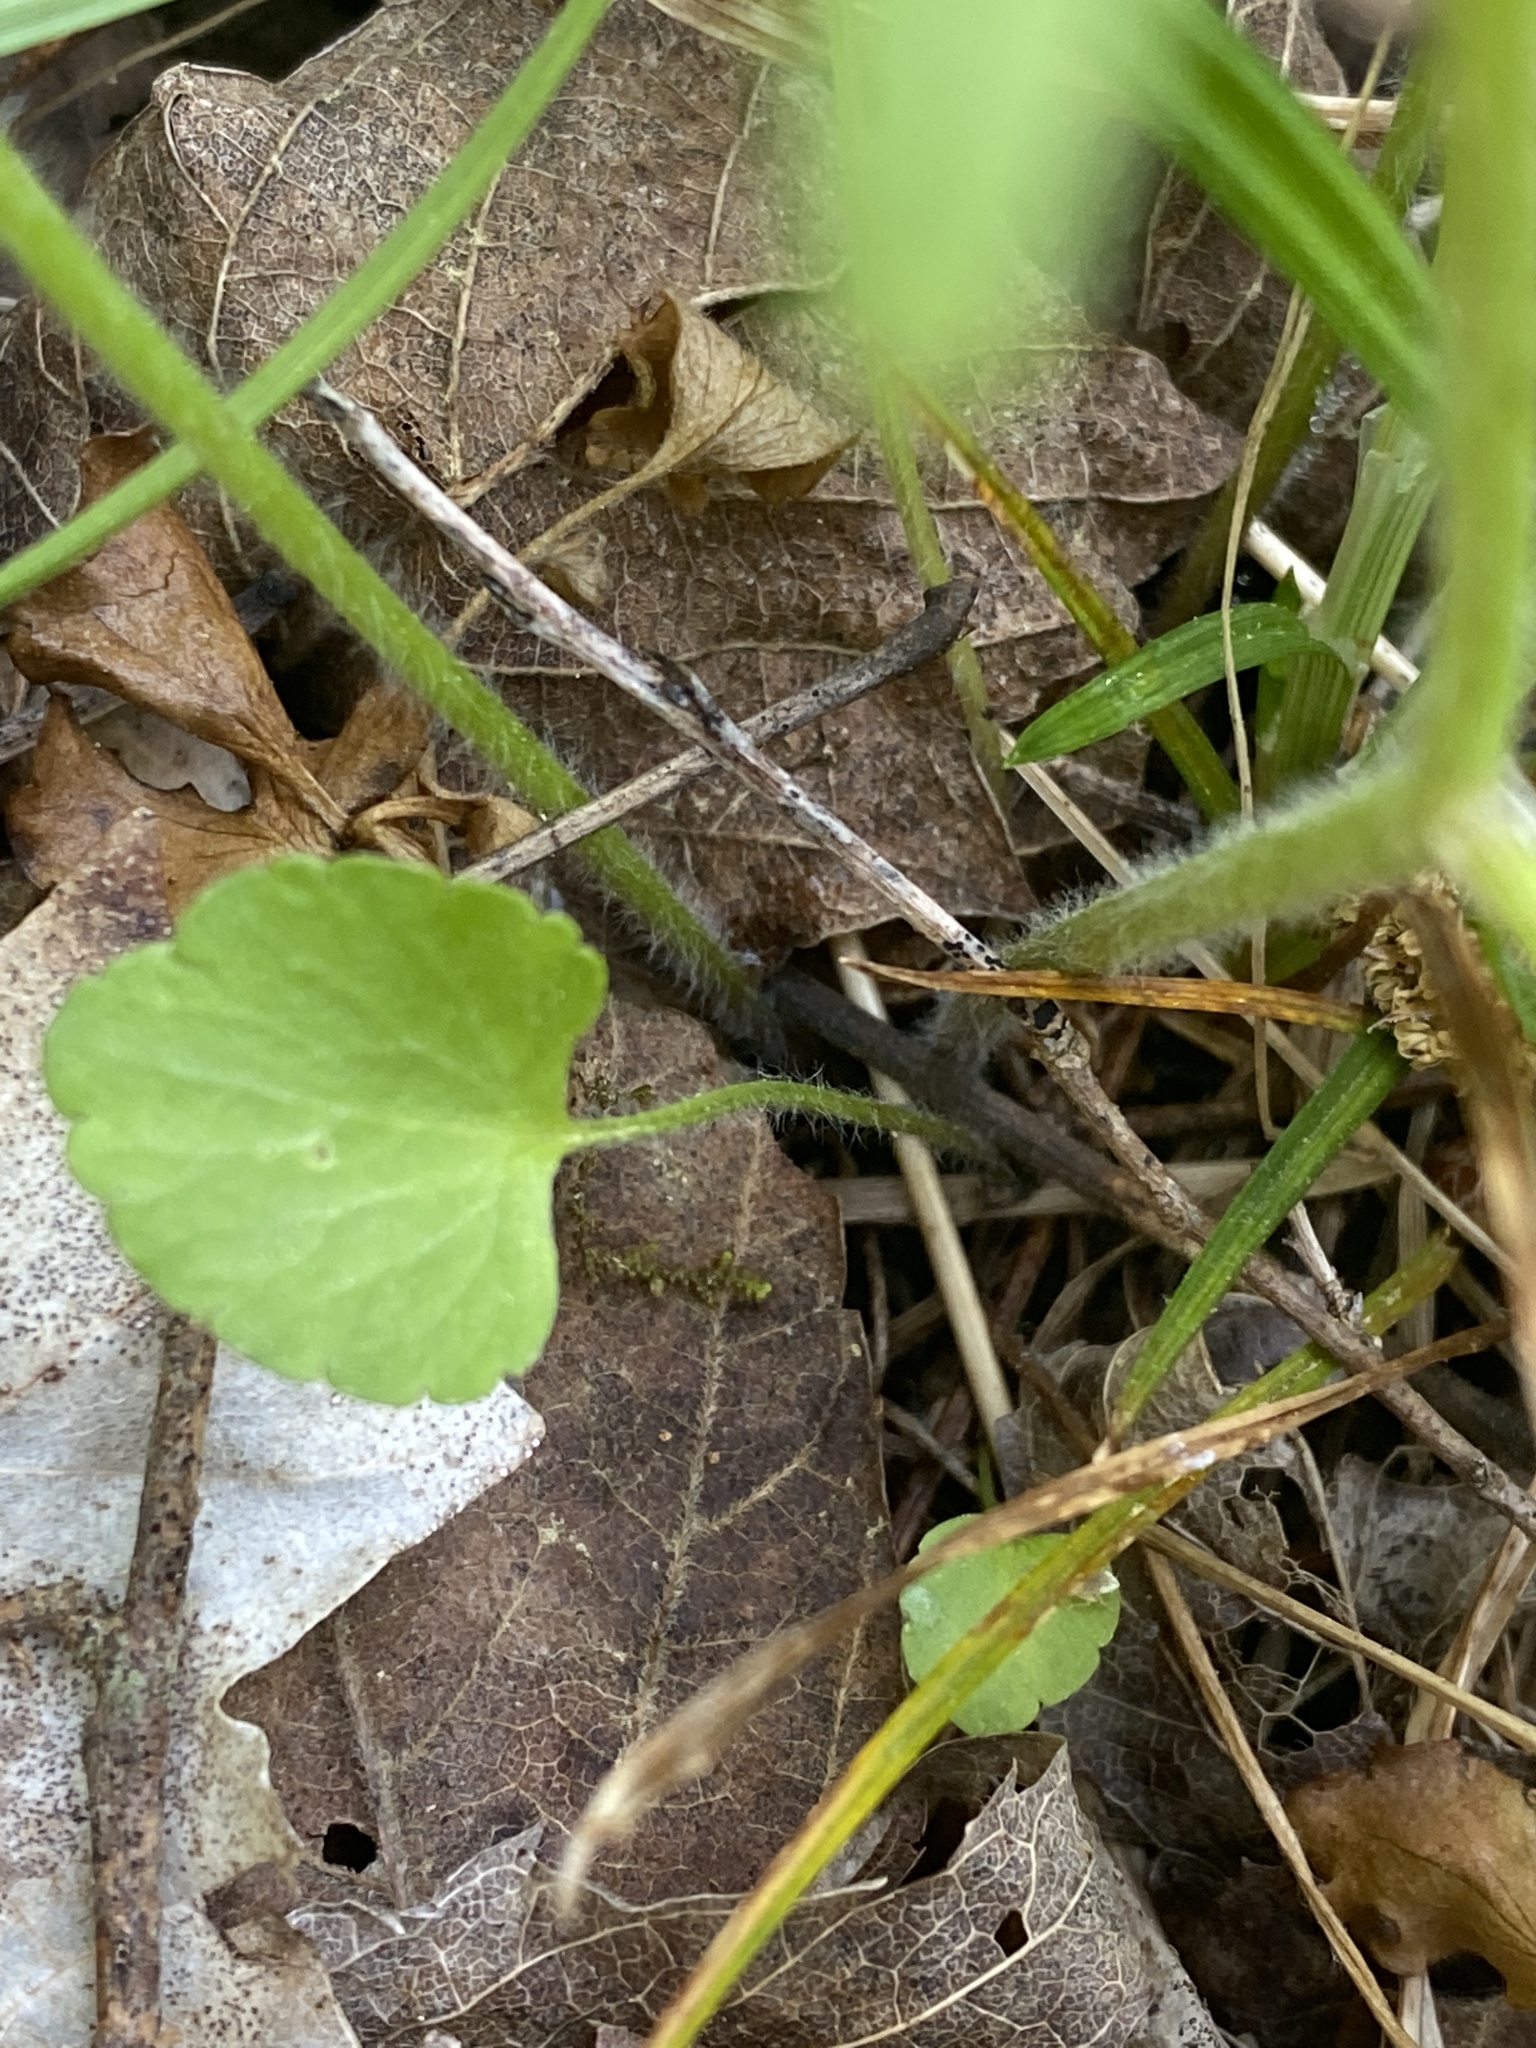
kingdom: Plantae
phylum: Tracheophyta
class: Magnoliopsida
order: Ranunculales
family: Ranunculaceae
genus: Ranunculus
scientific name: Ranunculus micranthus
